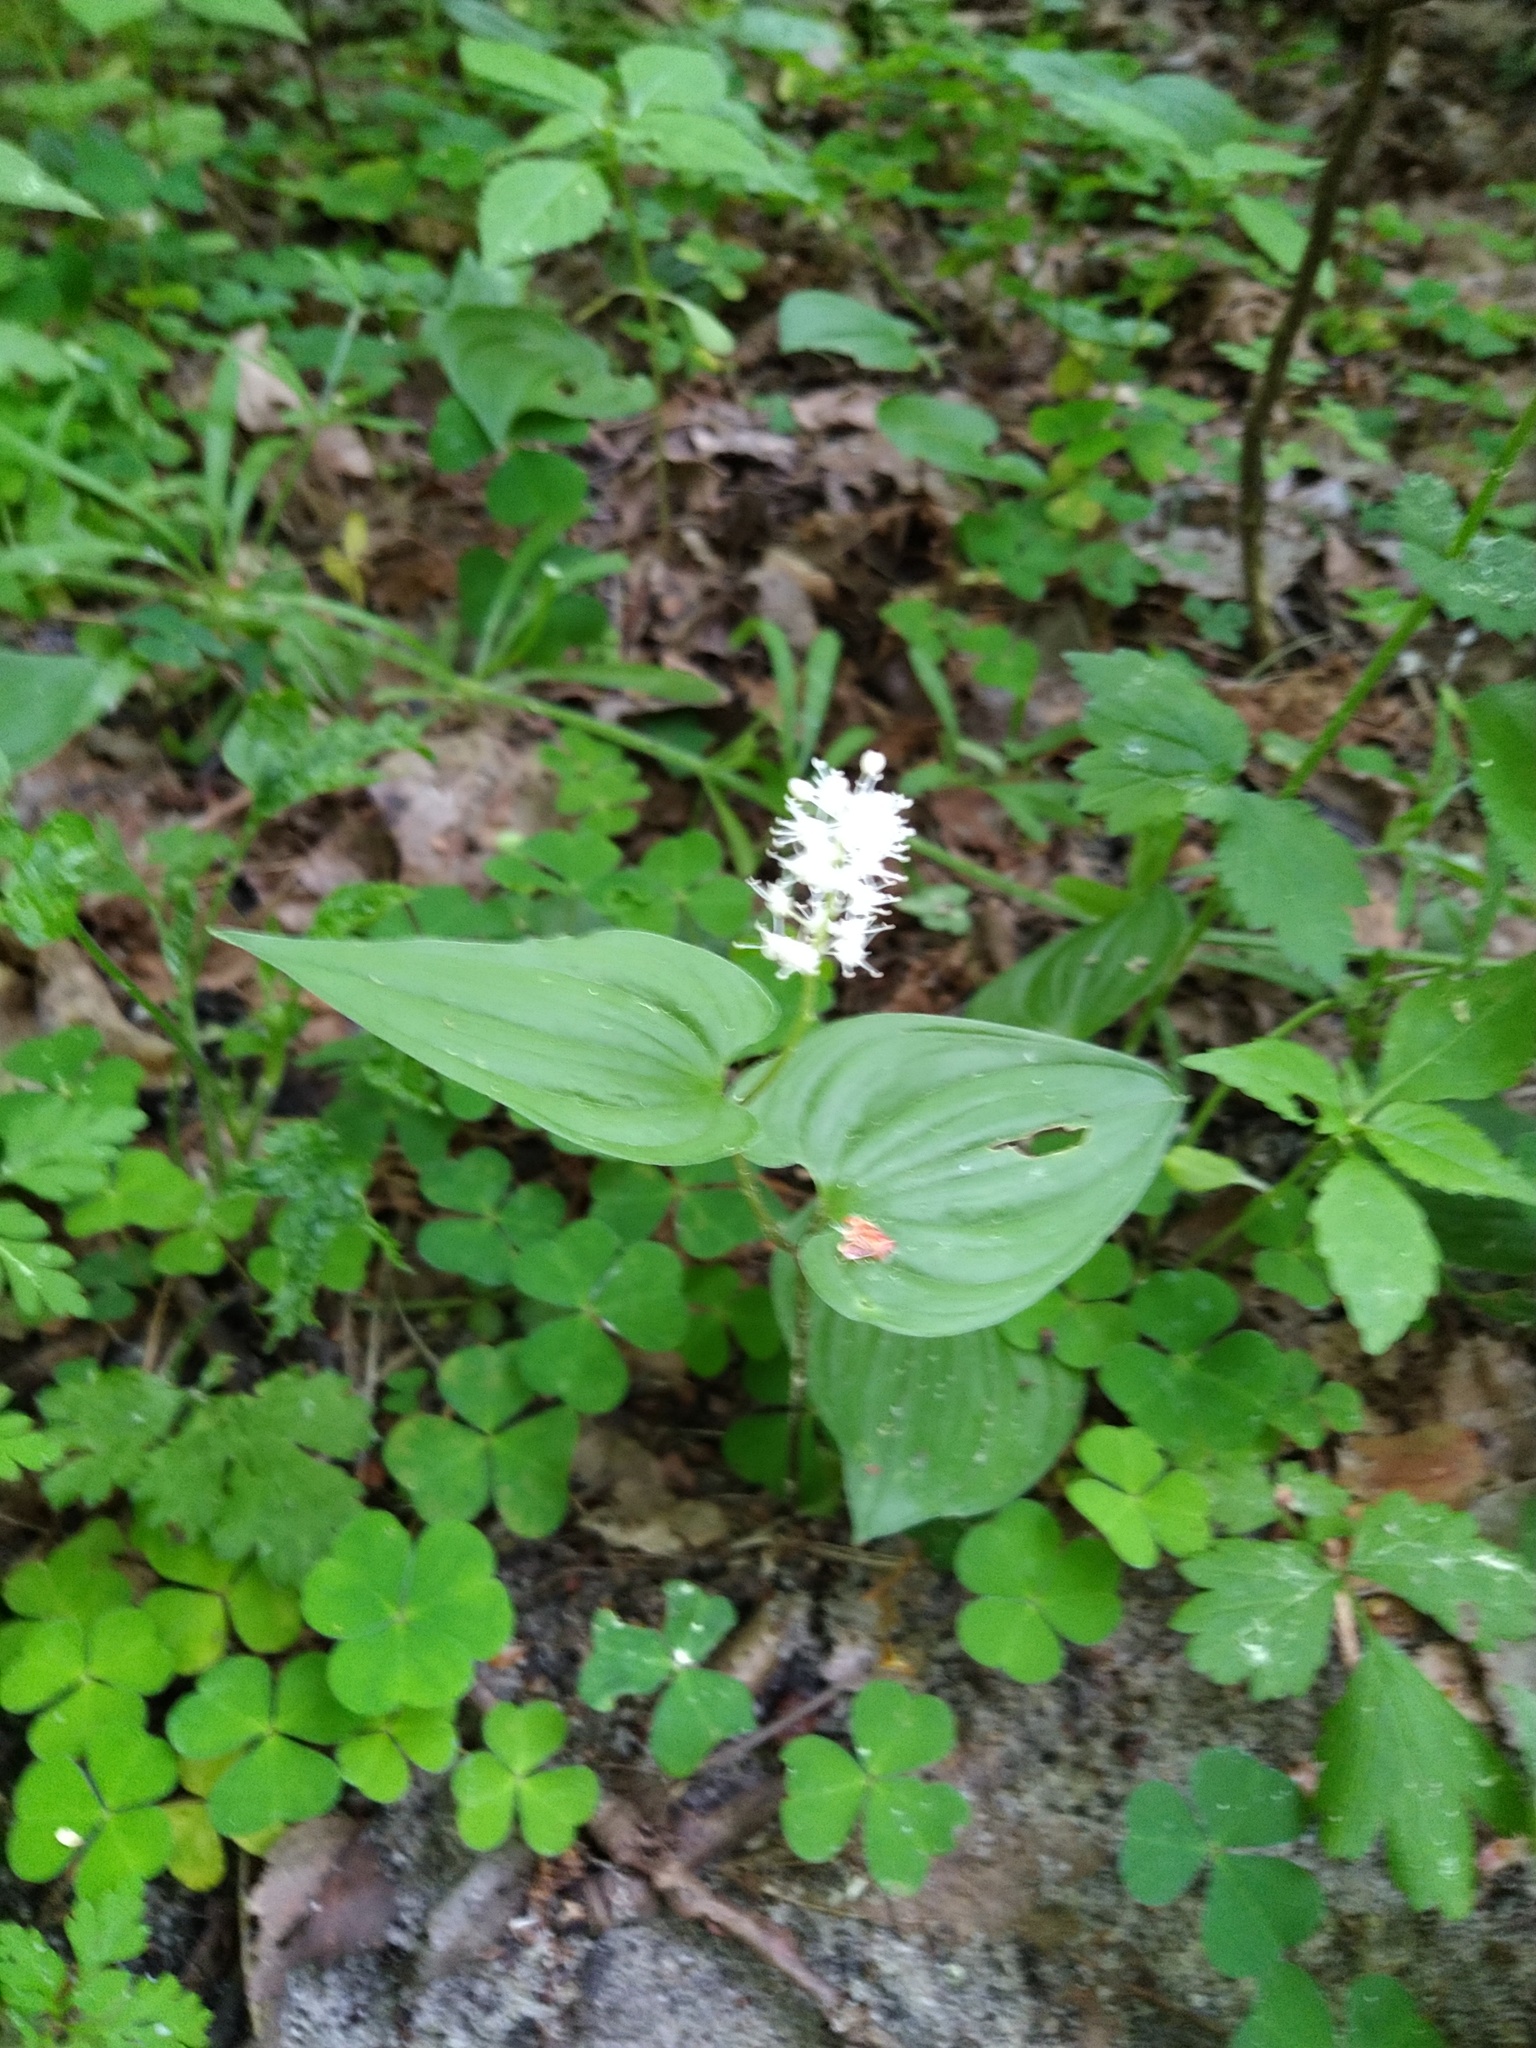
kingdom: Plantae
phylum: Tracheophyta
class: Liliopsida
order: Asparagales
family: Asparagaceae
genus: Maianthemum
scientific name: Maianthemum bifolium
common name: May lily
